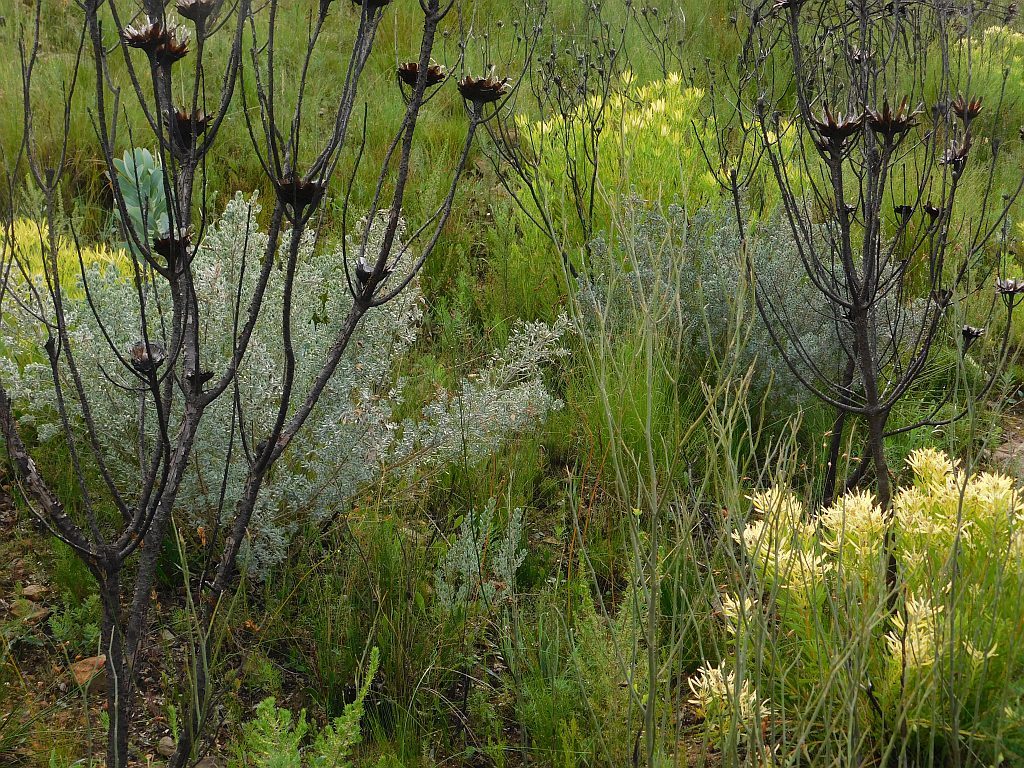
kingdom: Plantae
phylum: Tracheophyta
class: Magnoliopsida
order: Fabales
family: Fabaceae
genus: Xiphotheca
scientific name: Xiphotheca elliptica
